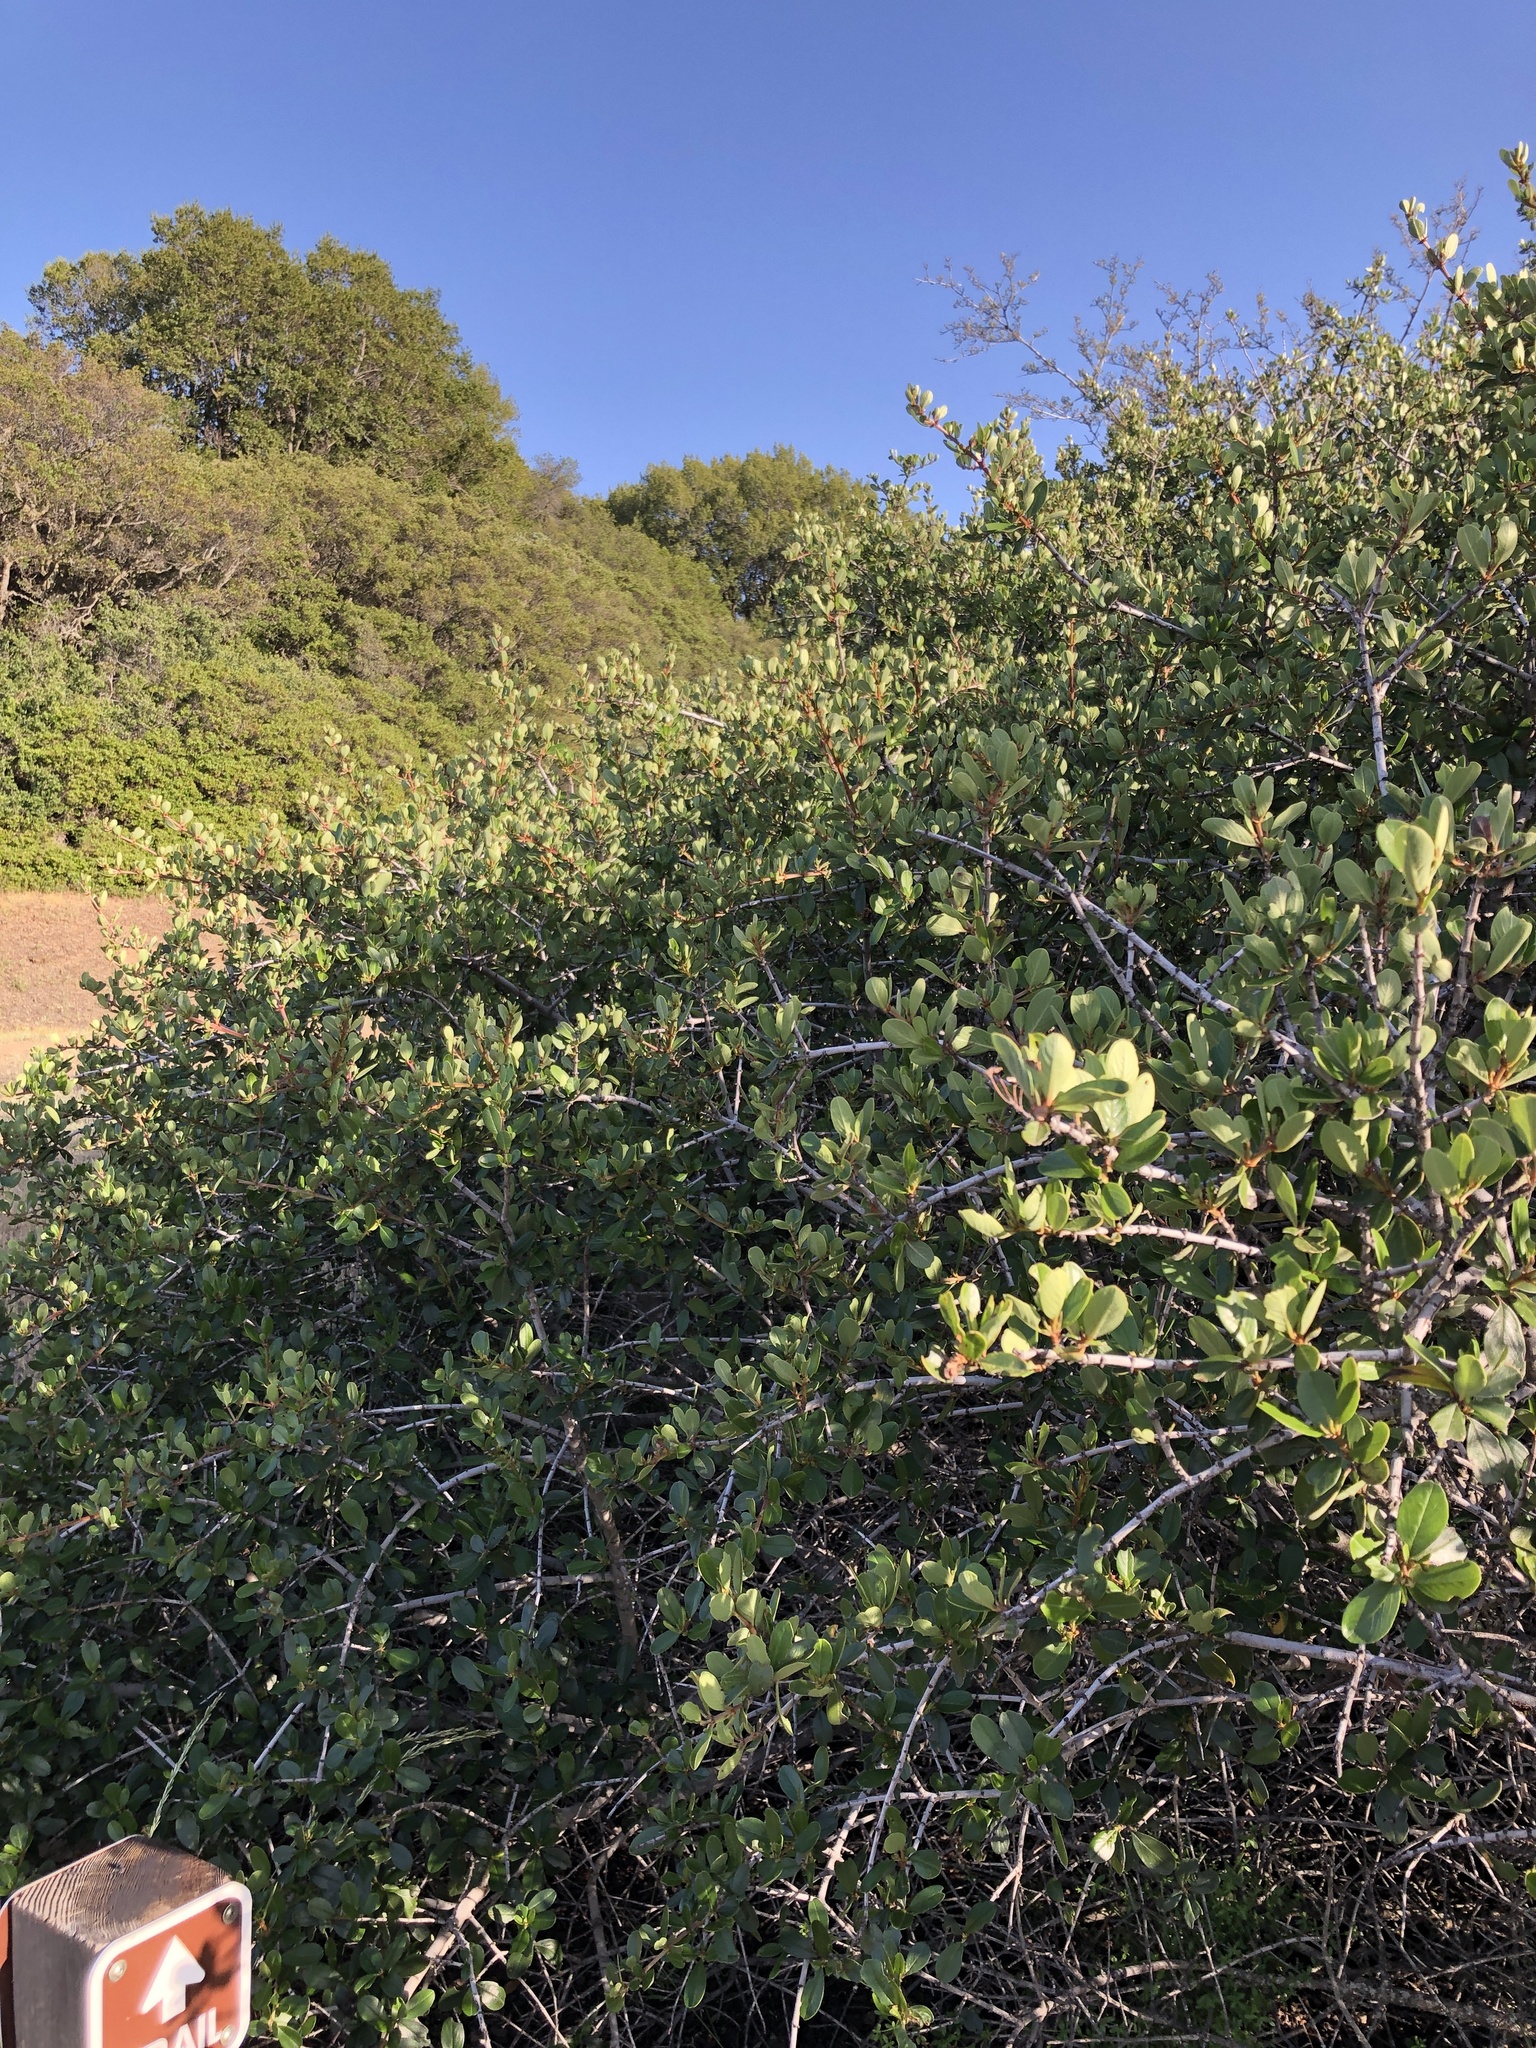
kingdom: Plantae
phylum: Tracheophyta
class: Magnoliopsida
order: Rosales
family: Rhamnaceae
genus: Ceanothus
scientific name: Ceanothus cuneatus
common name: Cuneate ceanothus
